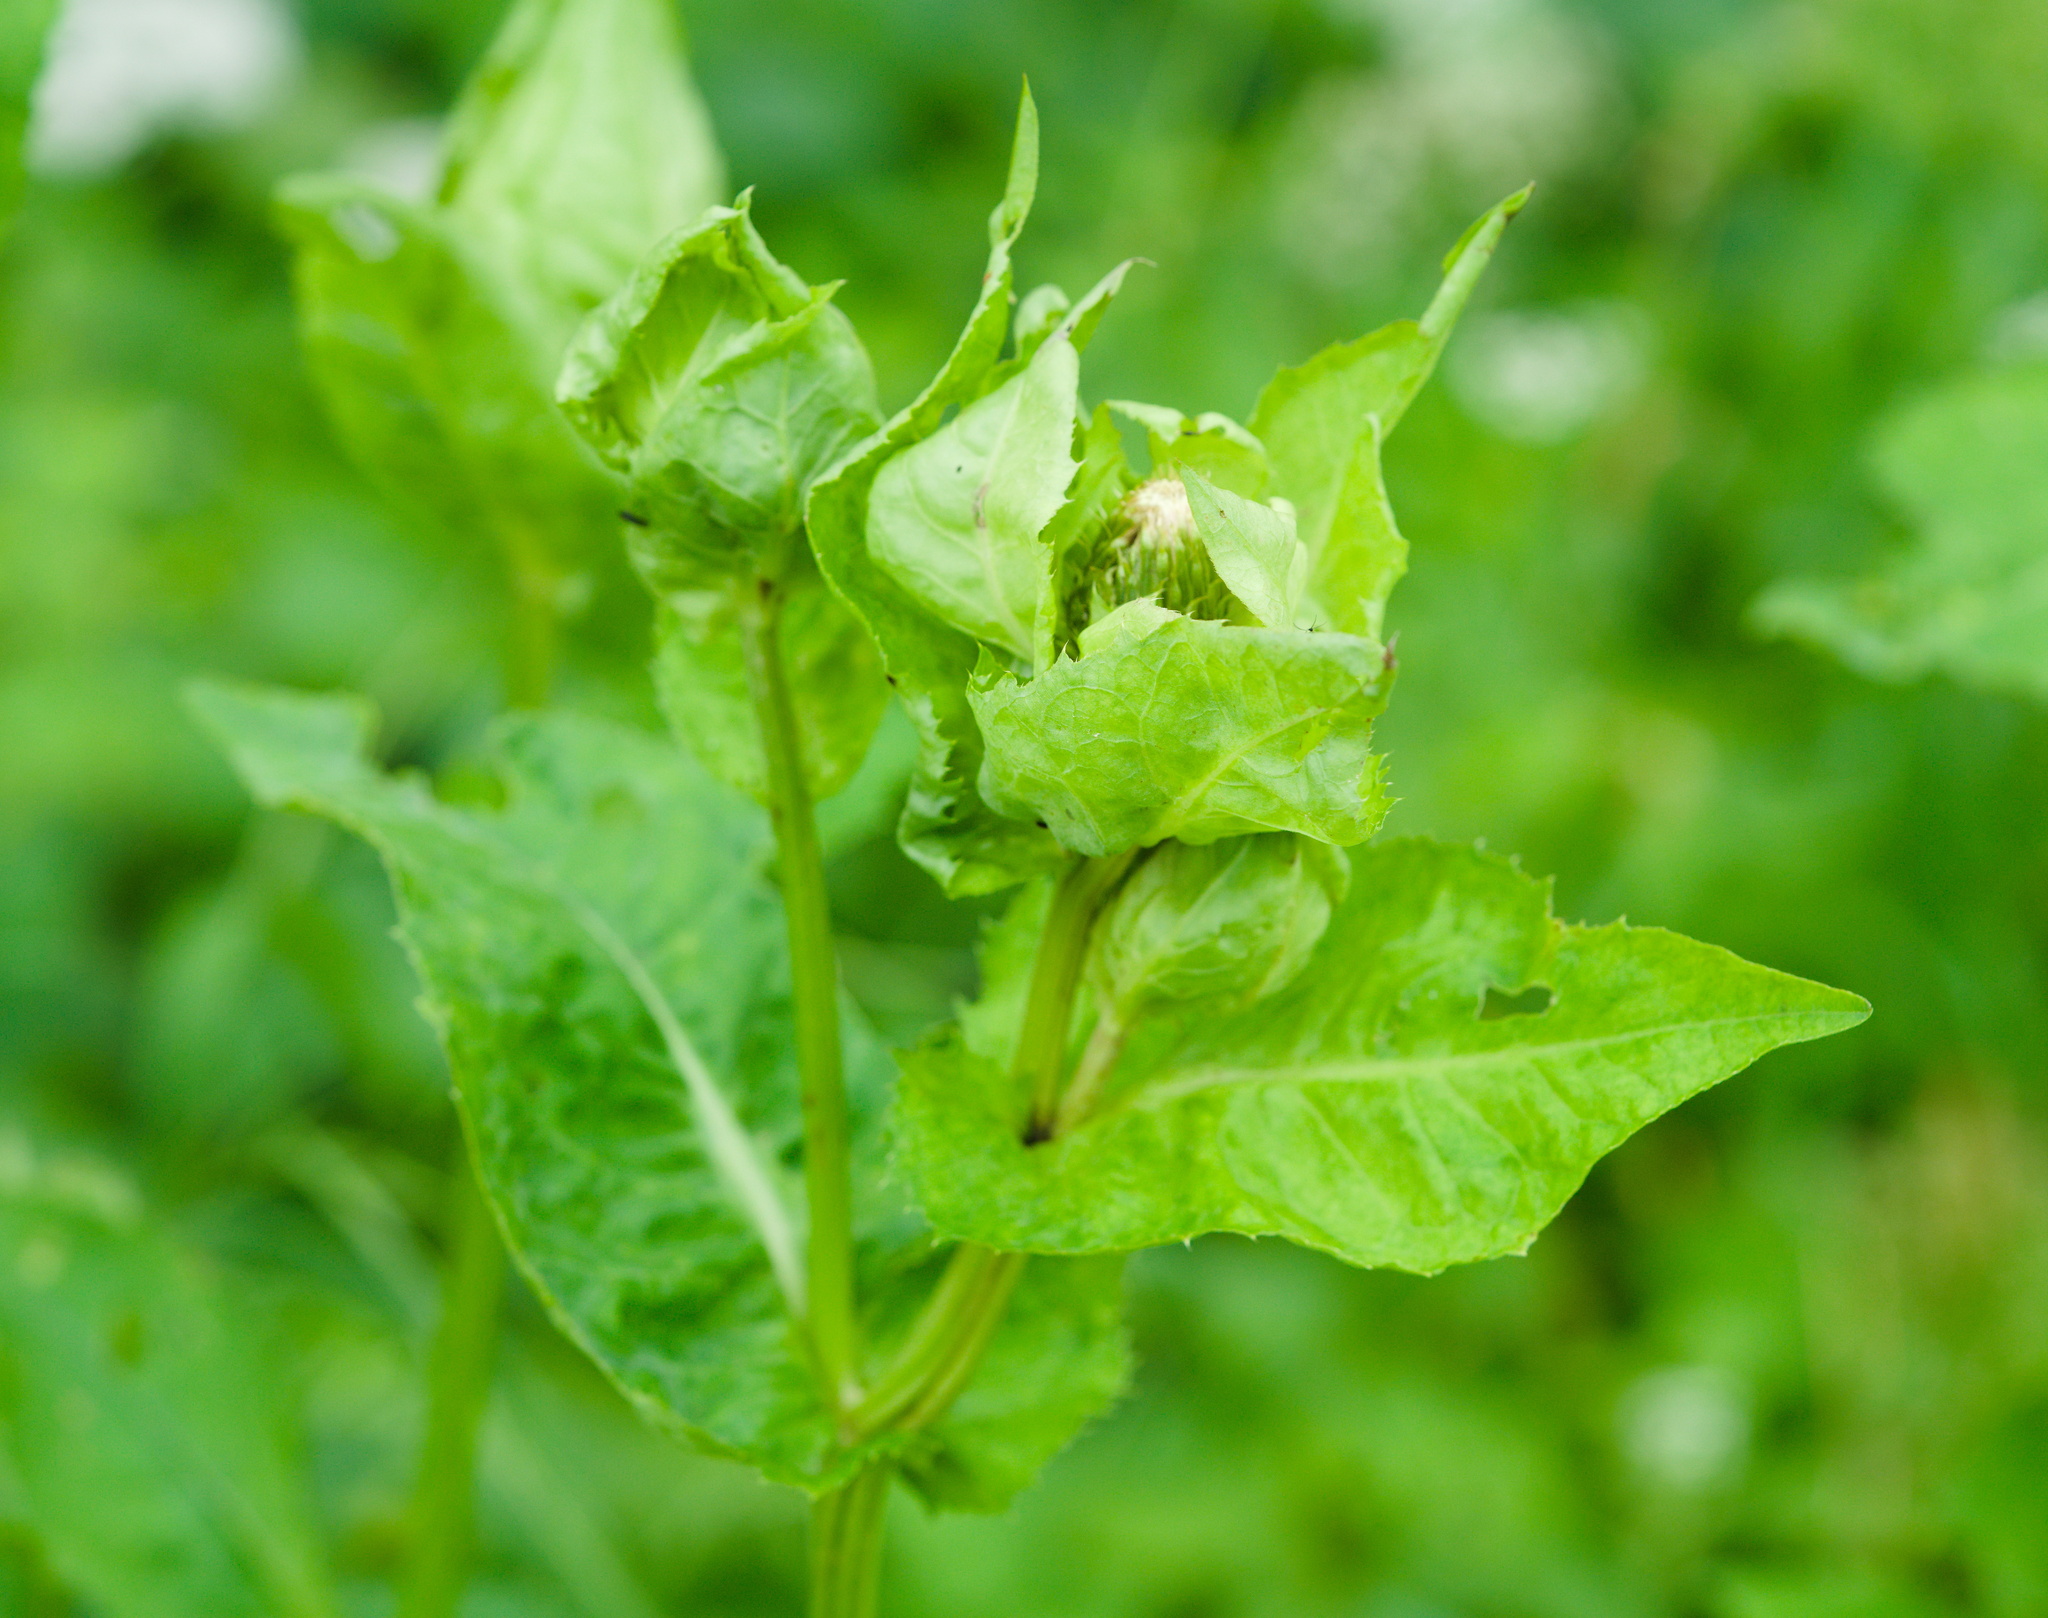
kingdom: Plantae
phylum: Tracheophyta
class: Magnoliopsida
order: Asterales
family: Asteraceae
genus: Cirsium
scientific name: Cirsium oleraceum
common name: Cabbage thistle
